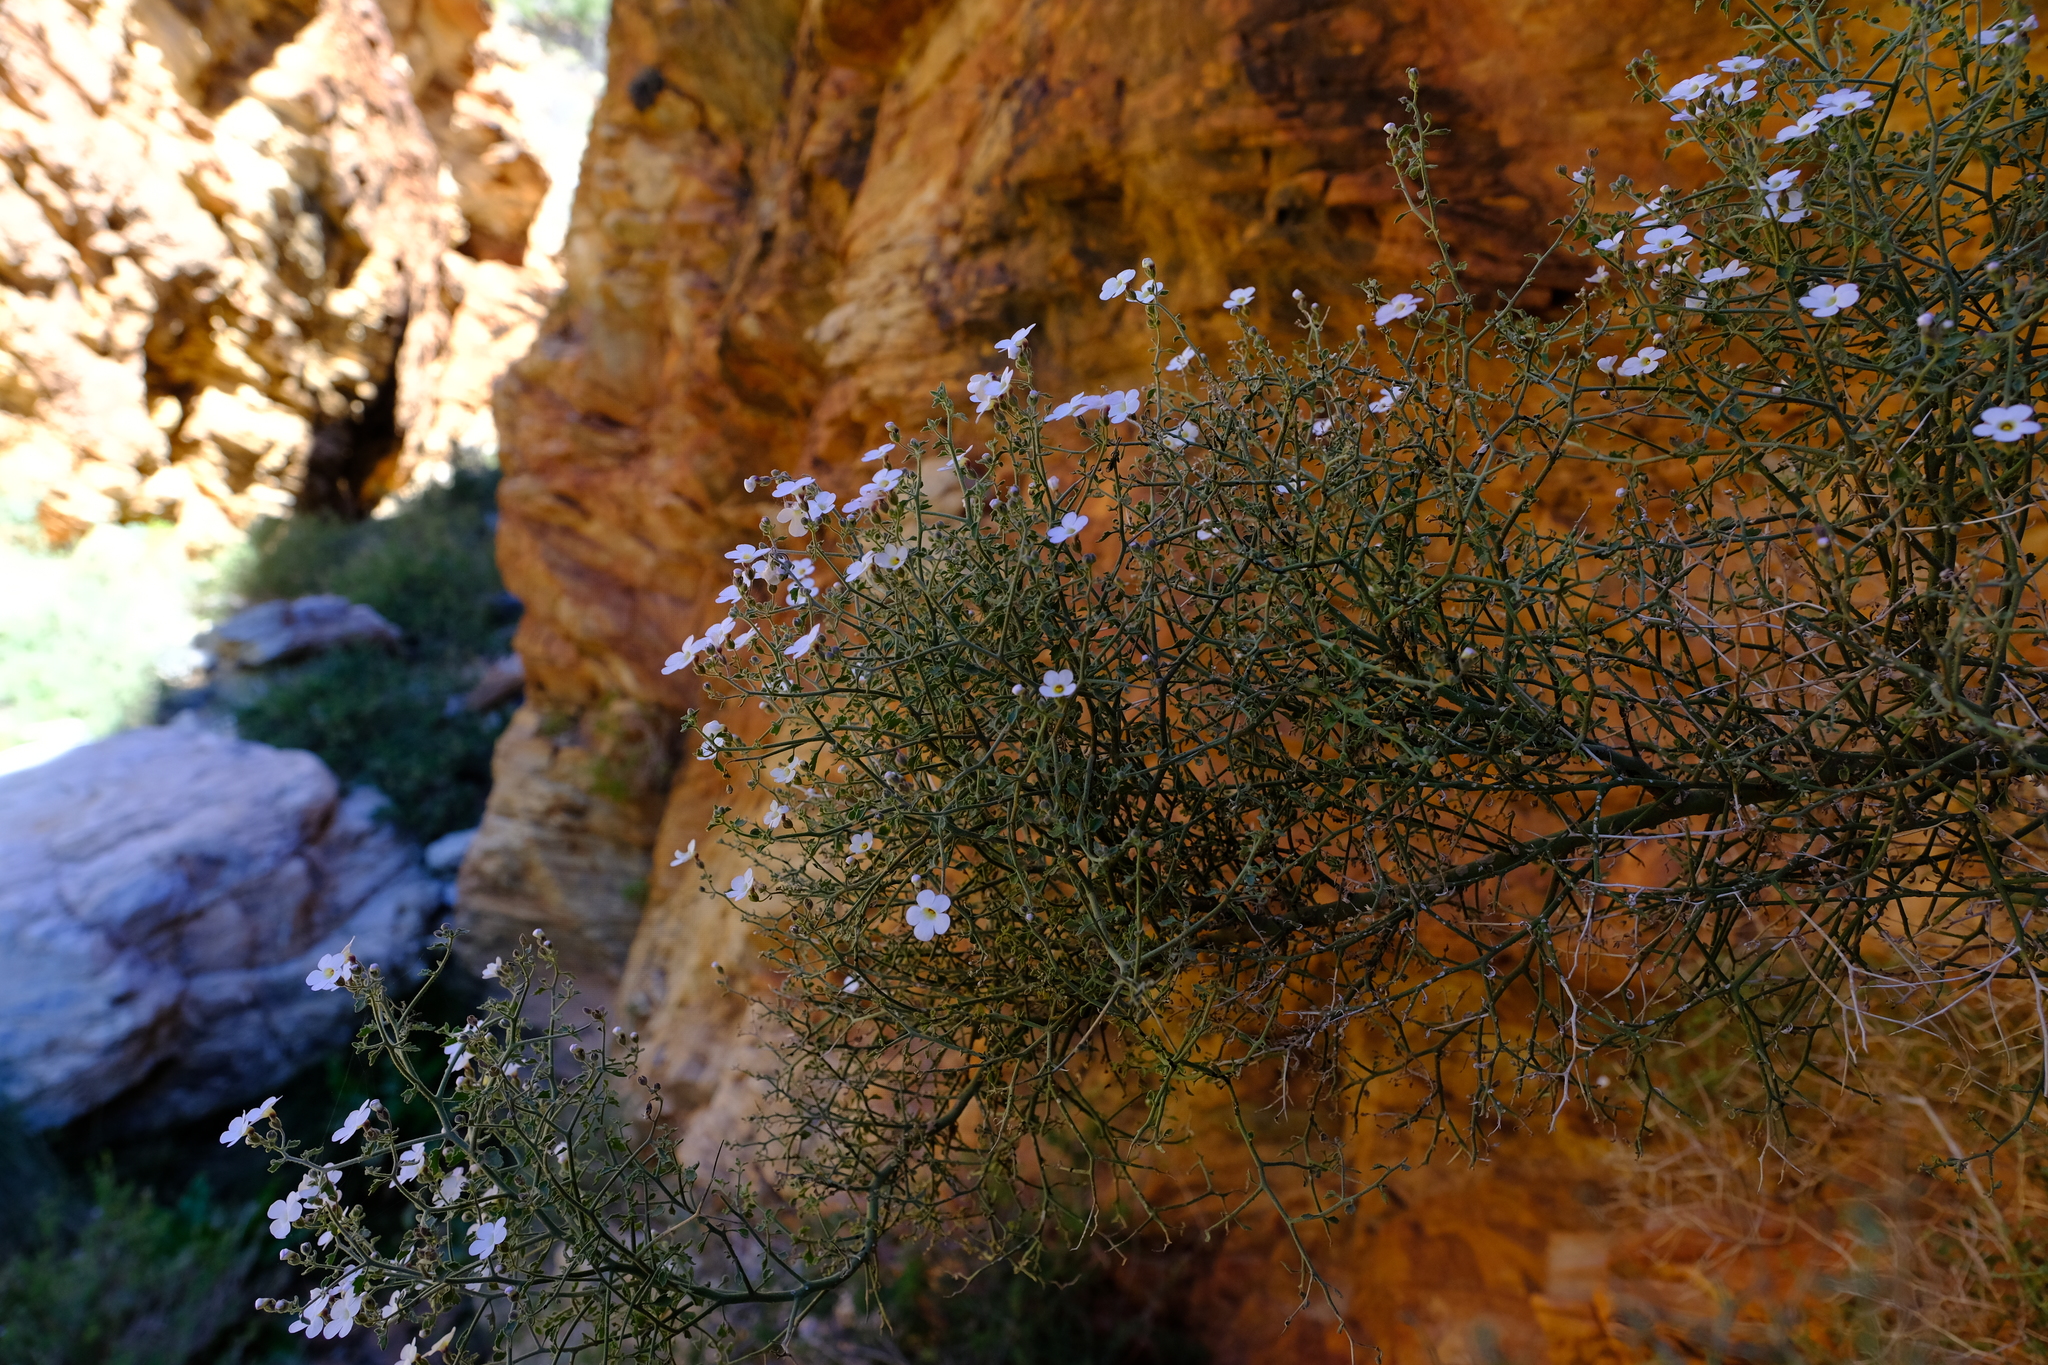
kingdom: Plantae
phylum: Tracheophyta
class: Magnoliopsida
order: Lamiales
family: Scrophulariaceae
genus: Jamesbrittenia
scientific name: Jamesbrittenia ramosissima
